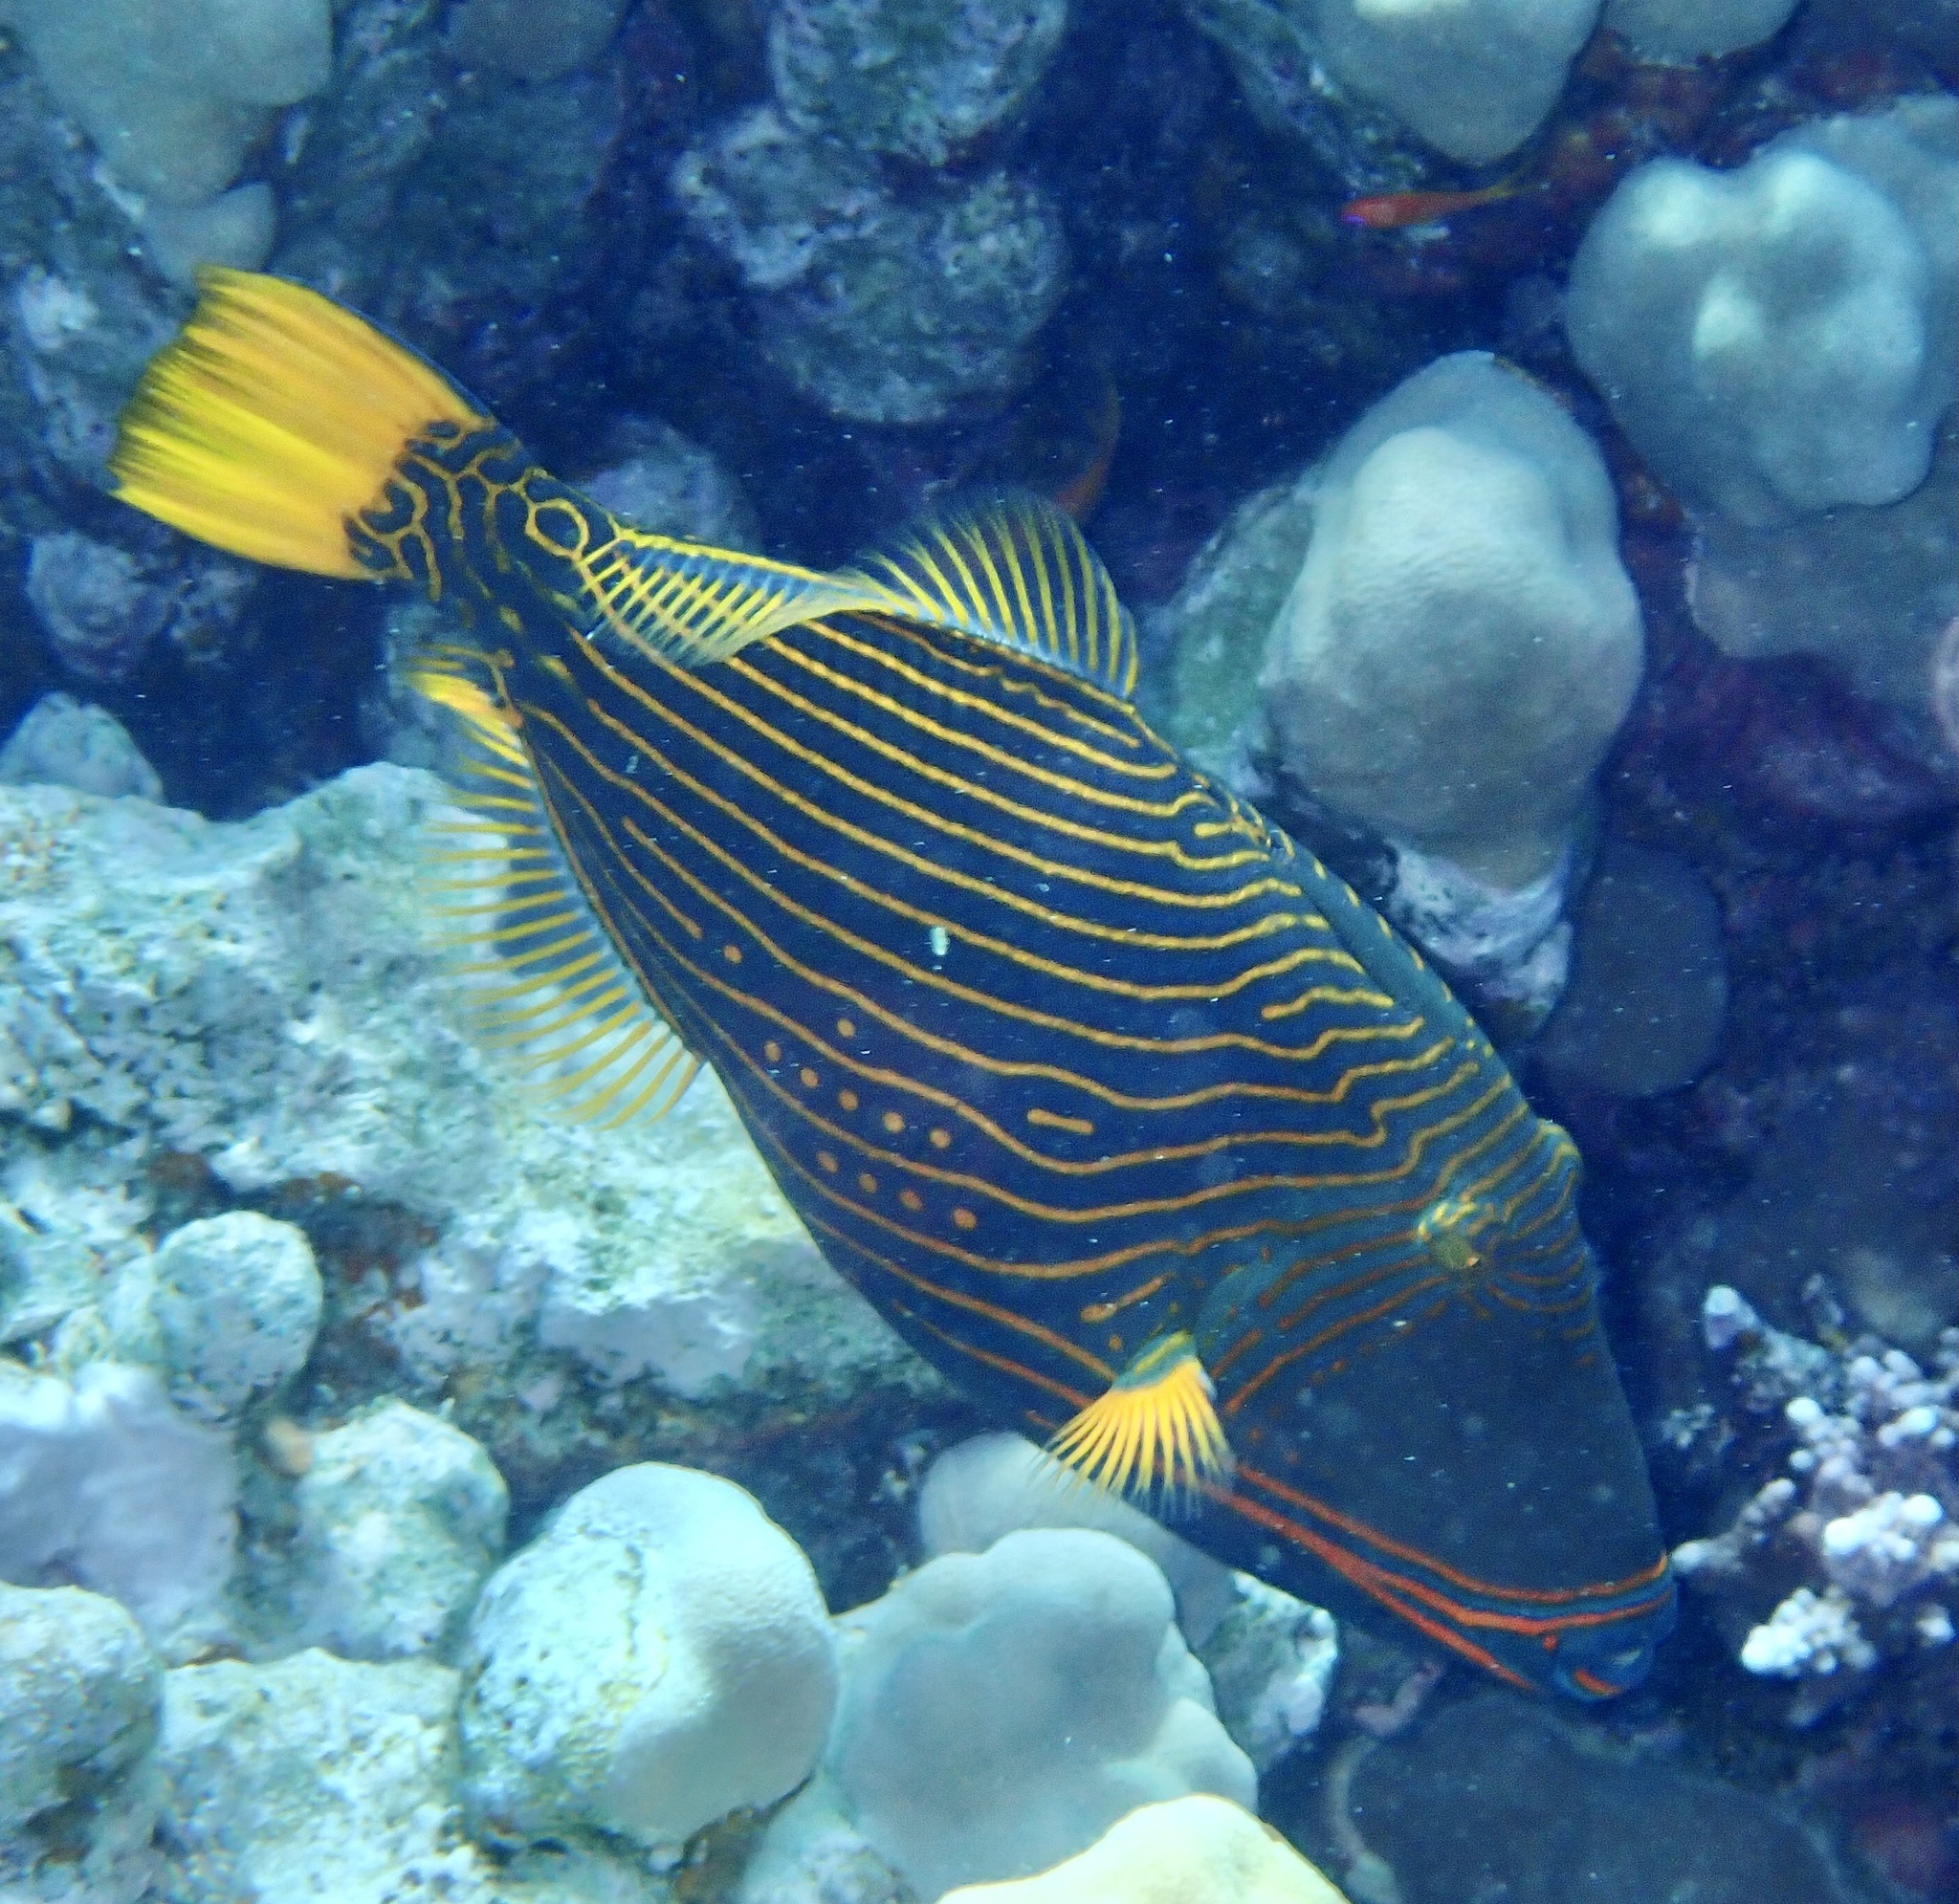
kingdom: Animalia
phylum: Chordata
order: Tetraodontiformes
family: Balistidae
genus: Balistapus
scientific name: Balistapus undulatus
